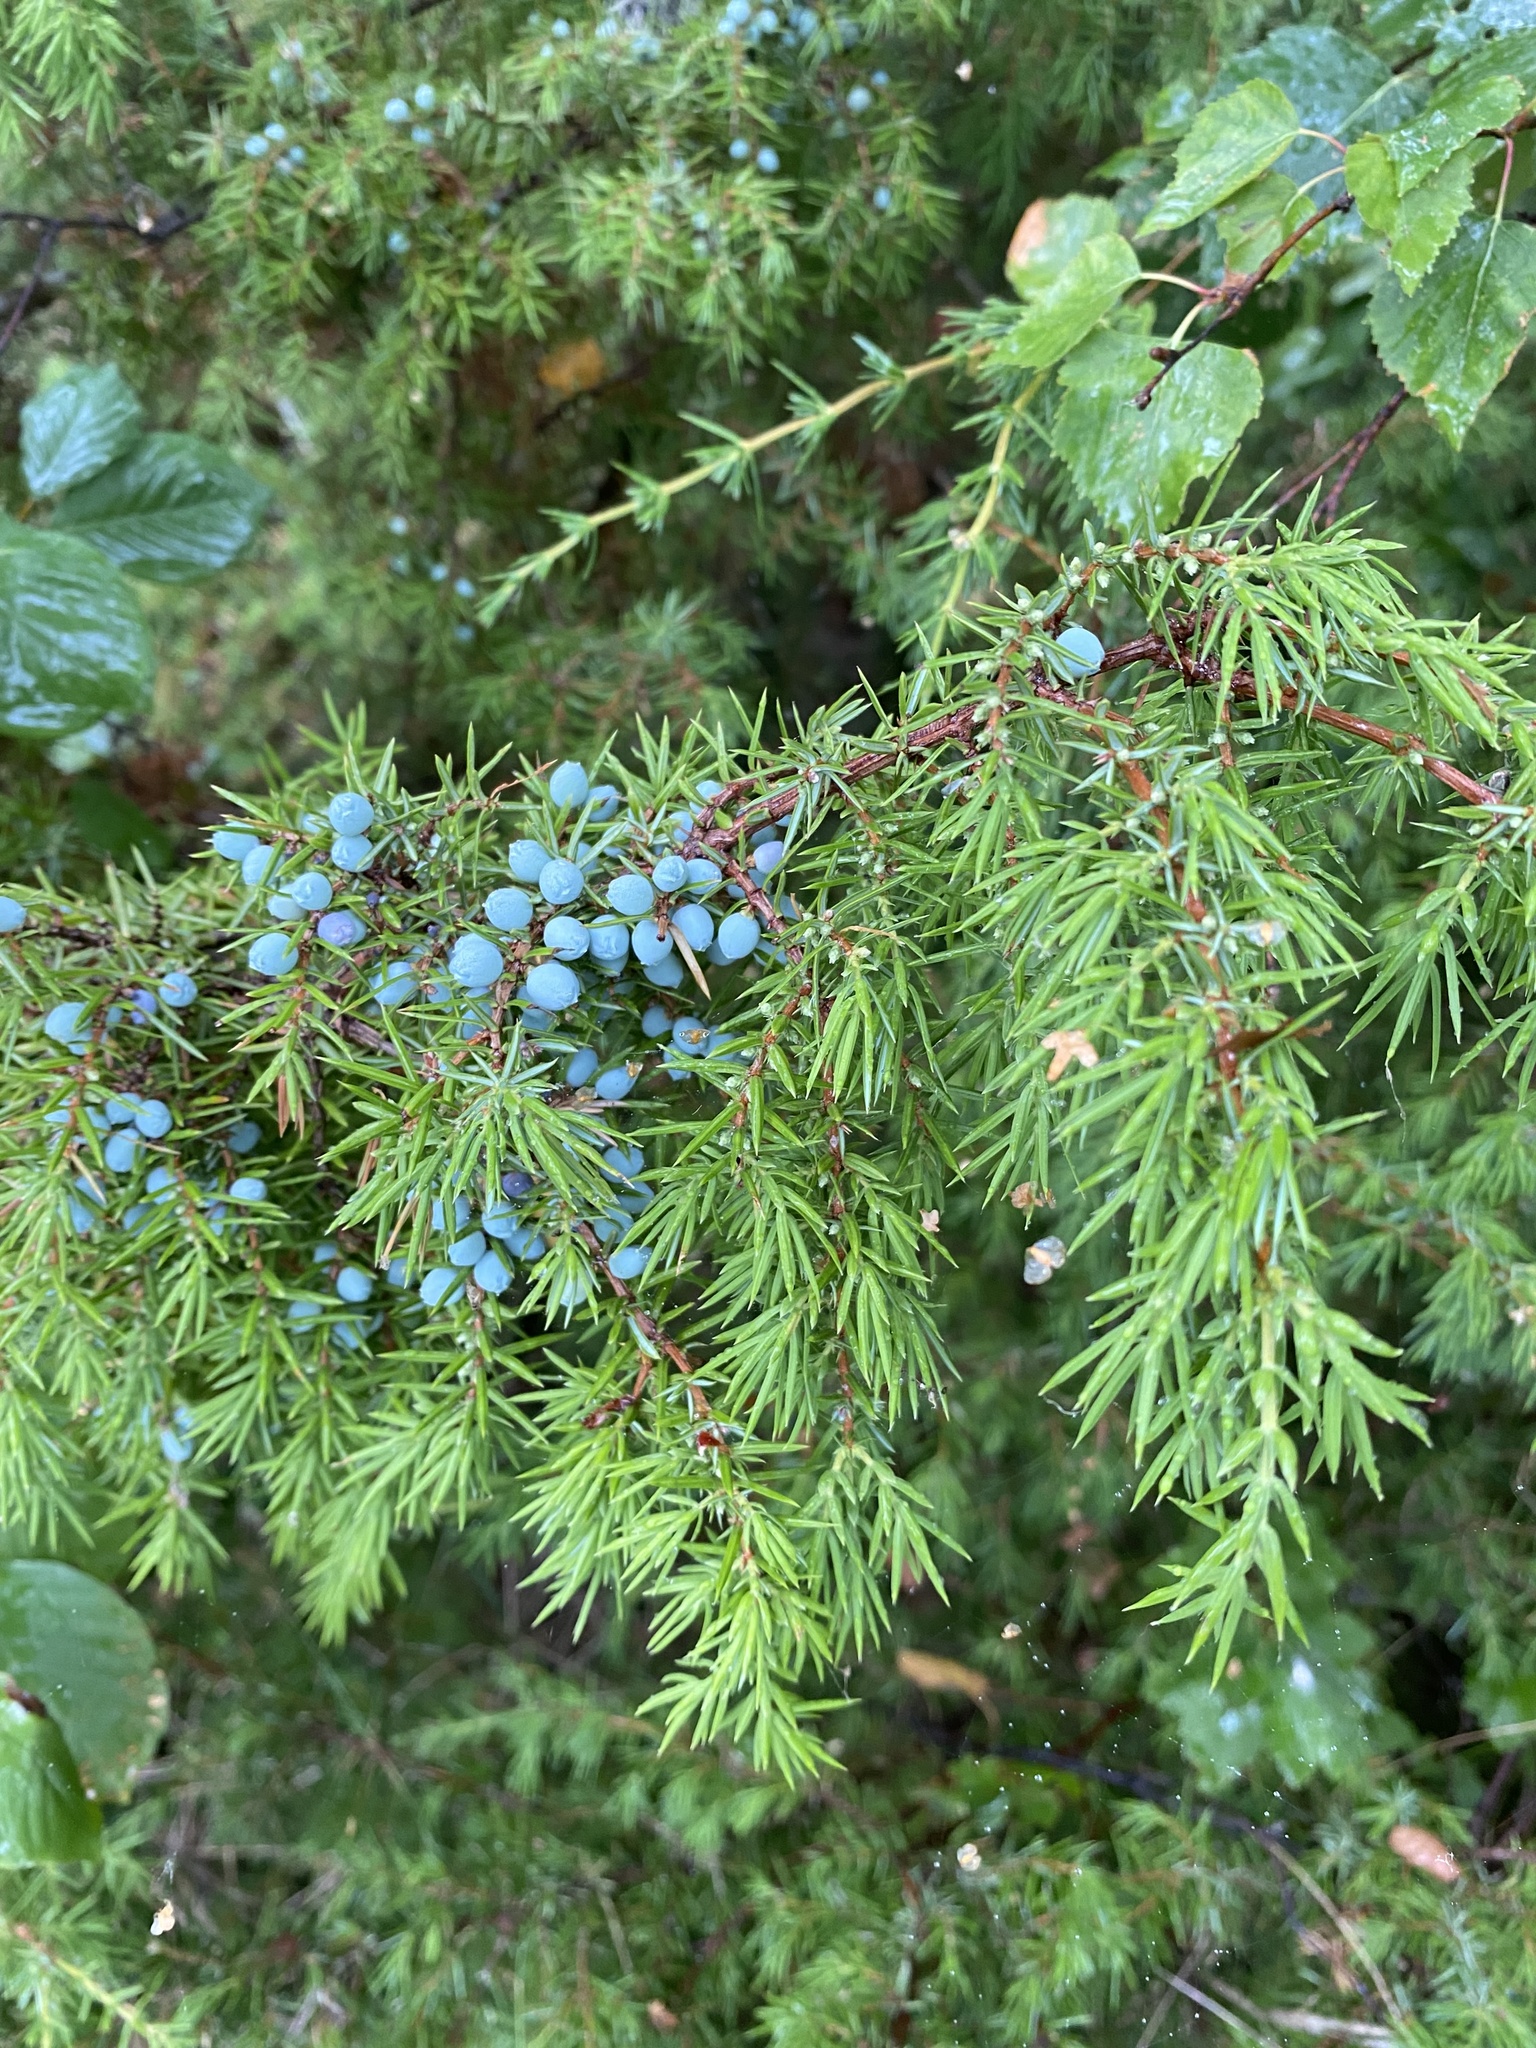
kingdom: Plantae
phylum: Tracheophyta
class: Pinopsida
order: Pinales
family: Cupressaceae
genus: Juniperus
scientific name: Juniperus communis
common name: Common juniper
